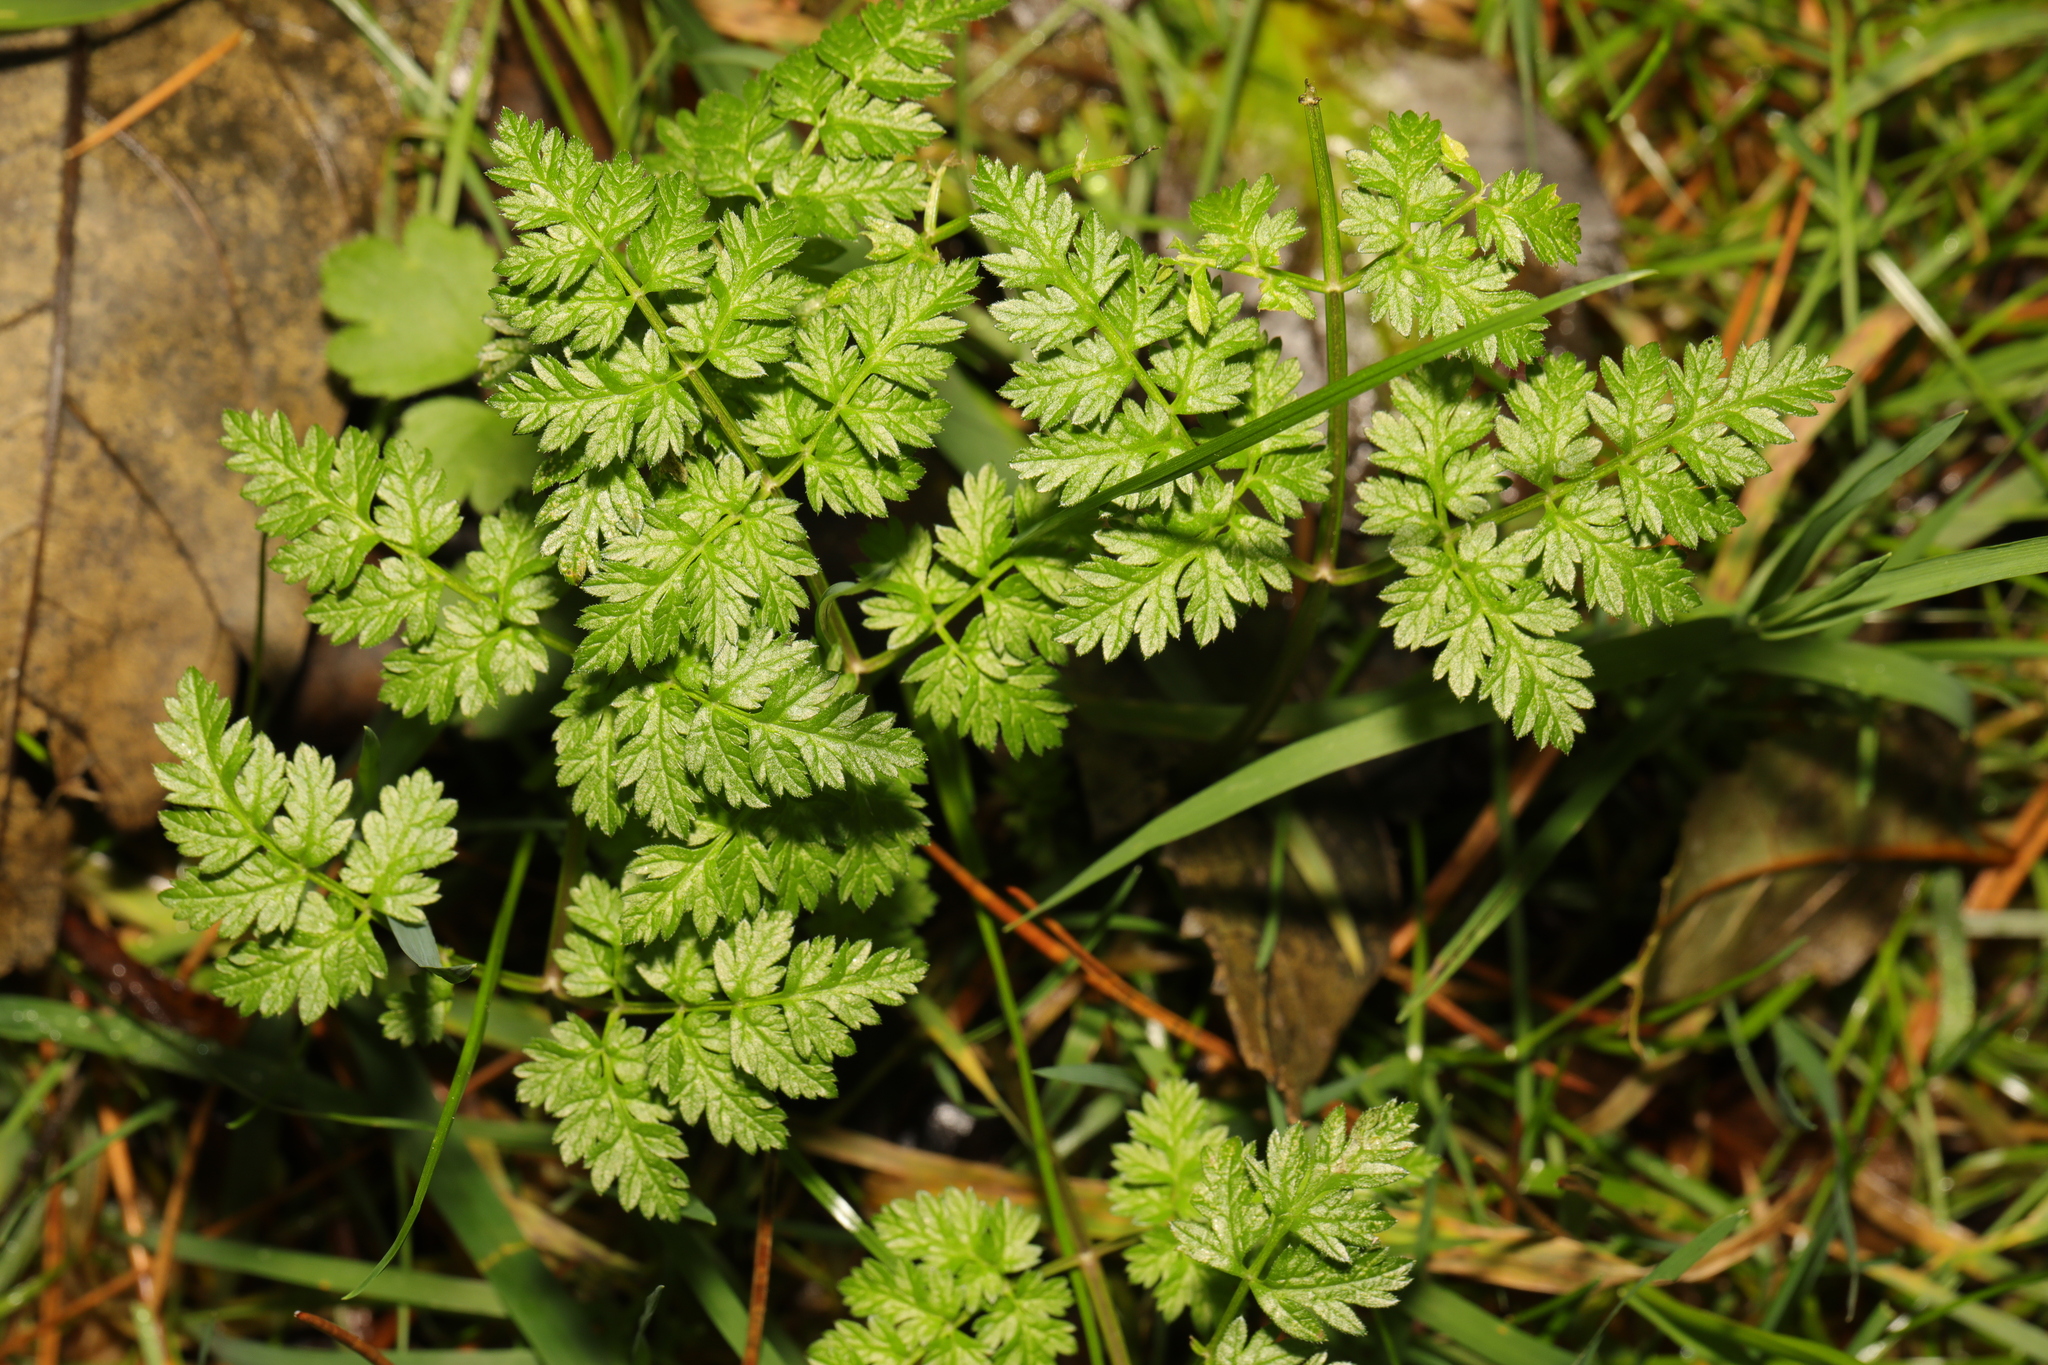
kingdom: Plantae
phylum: Tracheophyta
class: Magnoliopsida
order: Apiales
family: Apiaceae
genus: Anthriscus
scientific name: Anthriscus sylvestris
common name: Cow parsley
